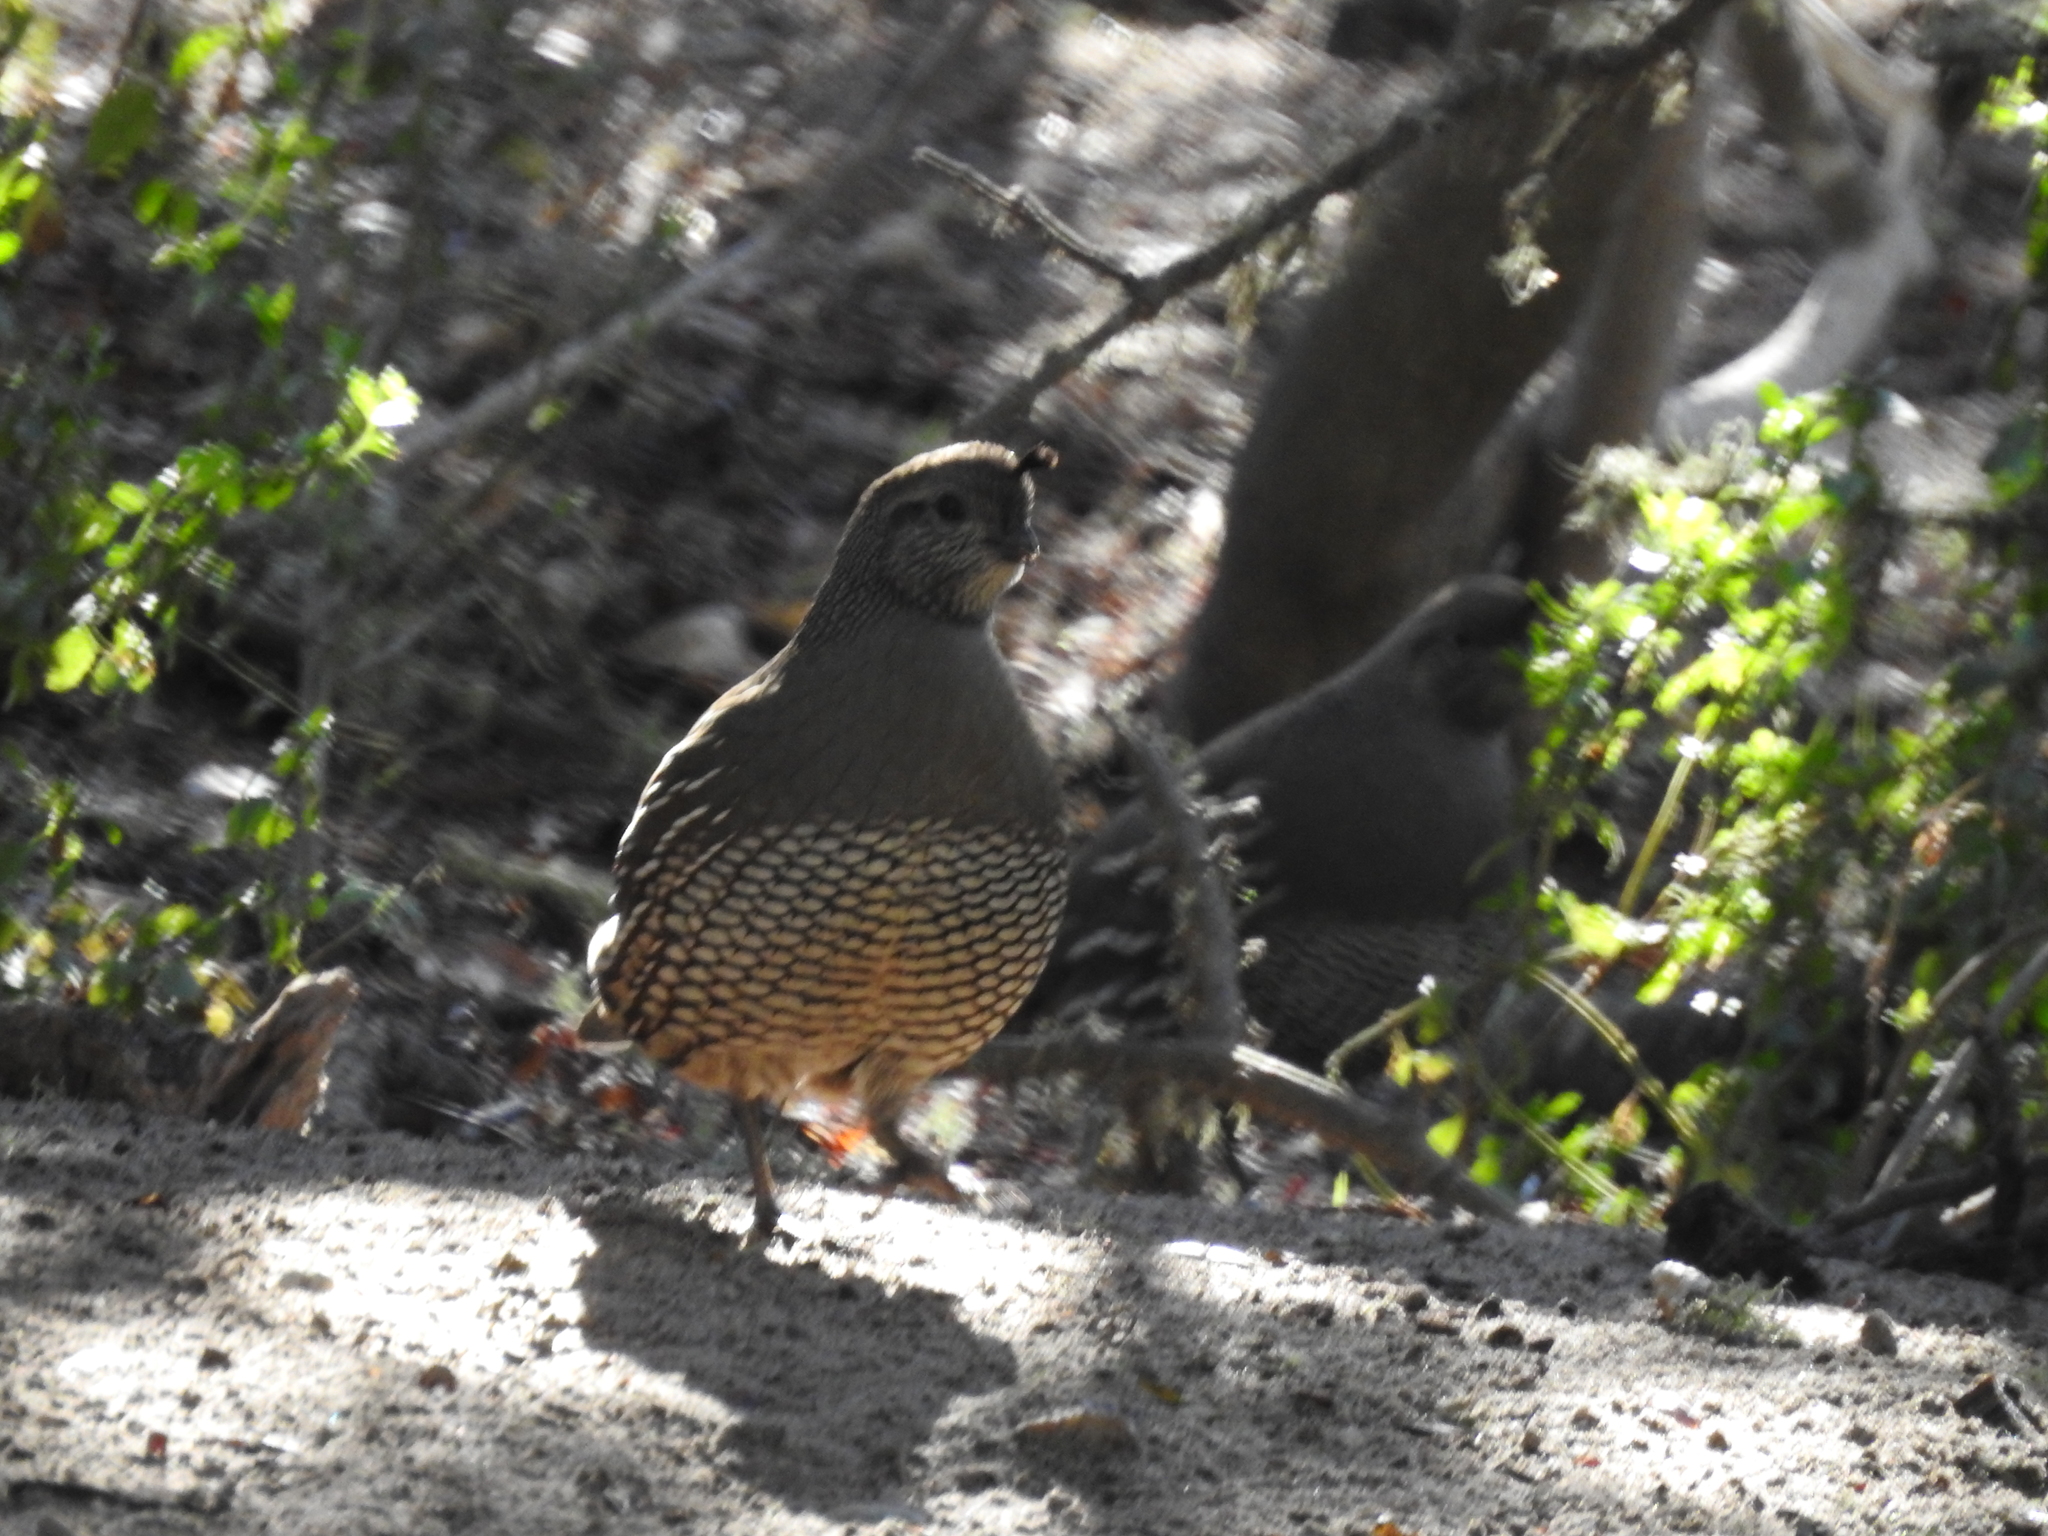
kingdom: Animalia
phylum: Chordata
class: Aves
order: Galliformes
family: Odontophoridae
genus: Callipepla
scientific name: Callipepla californica
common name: California quail
